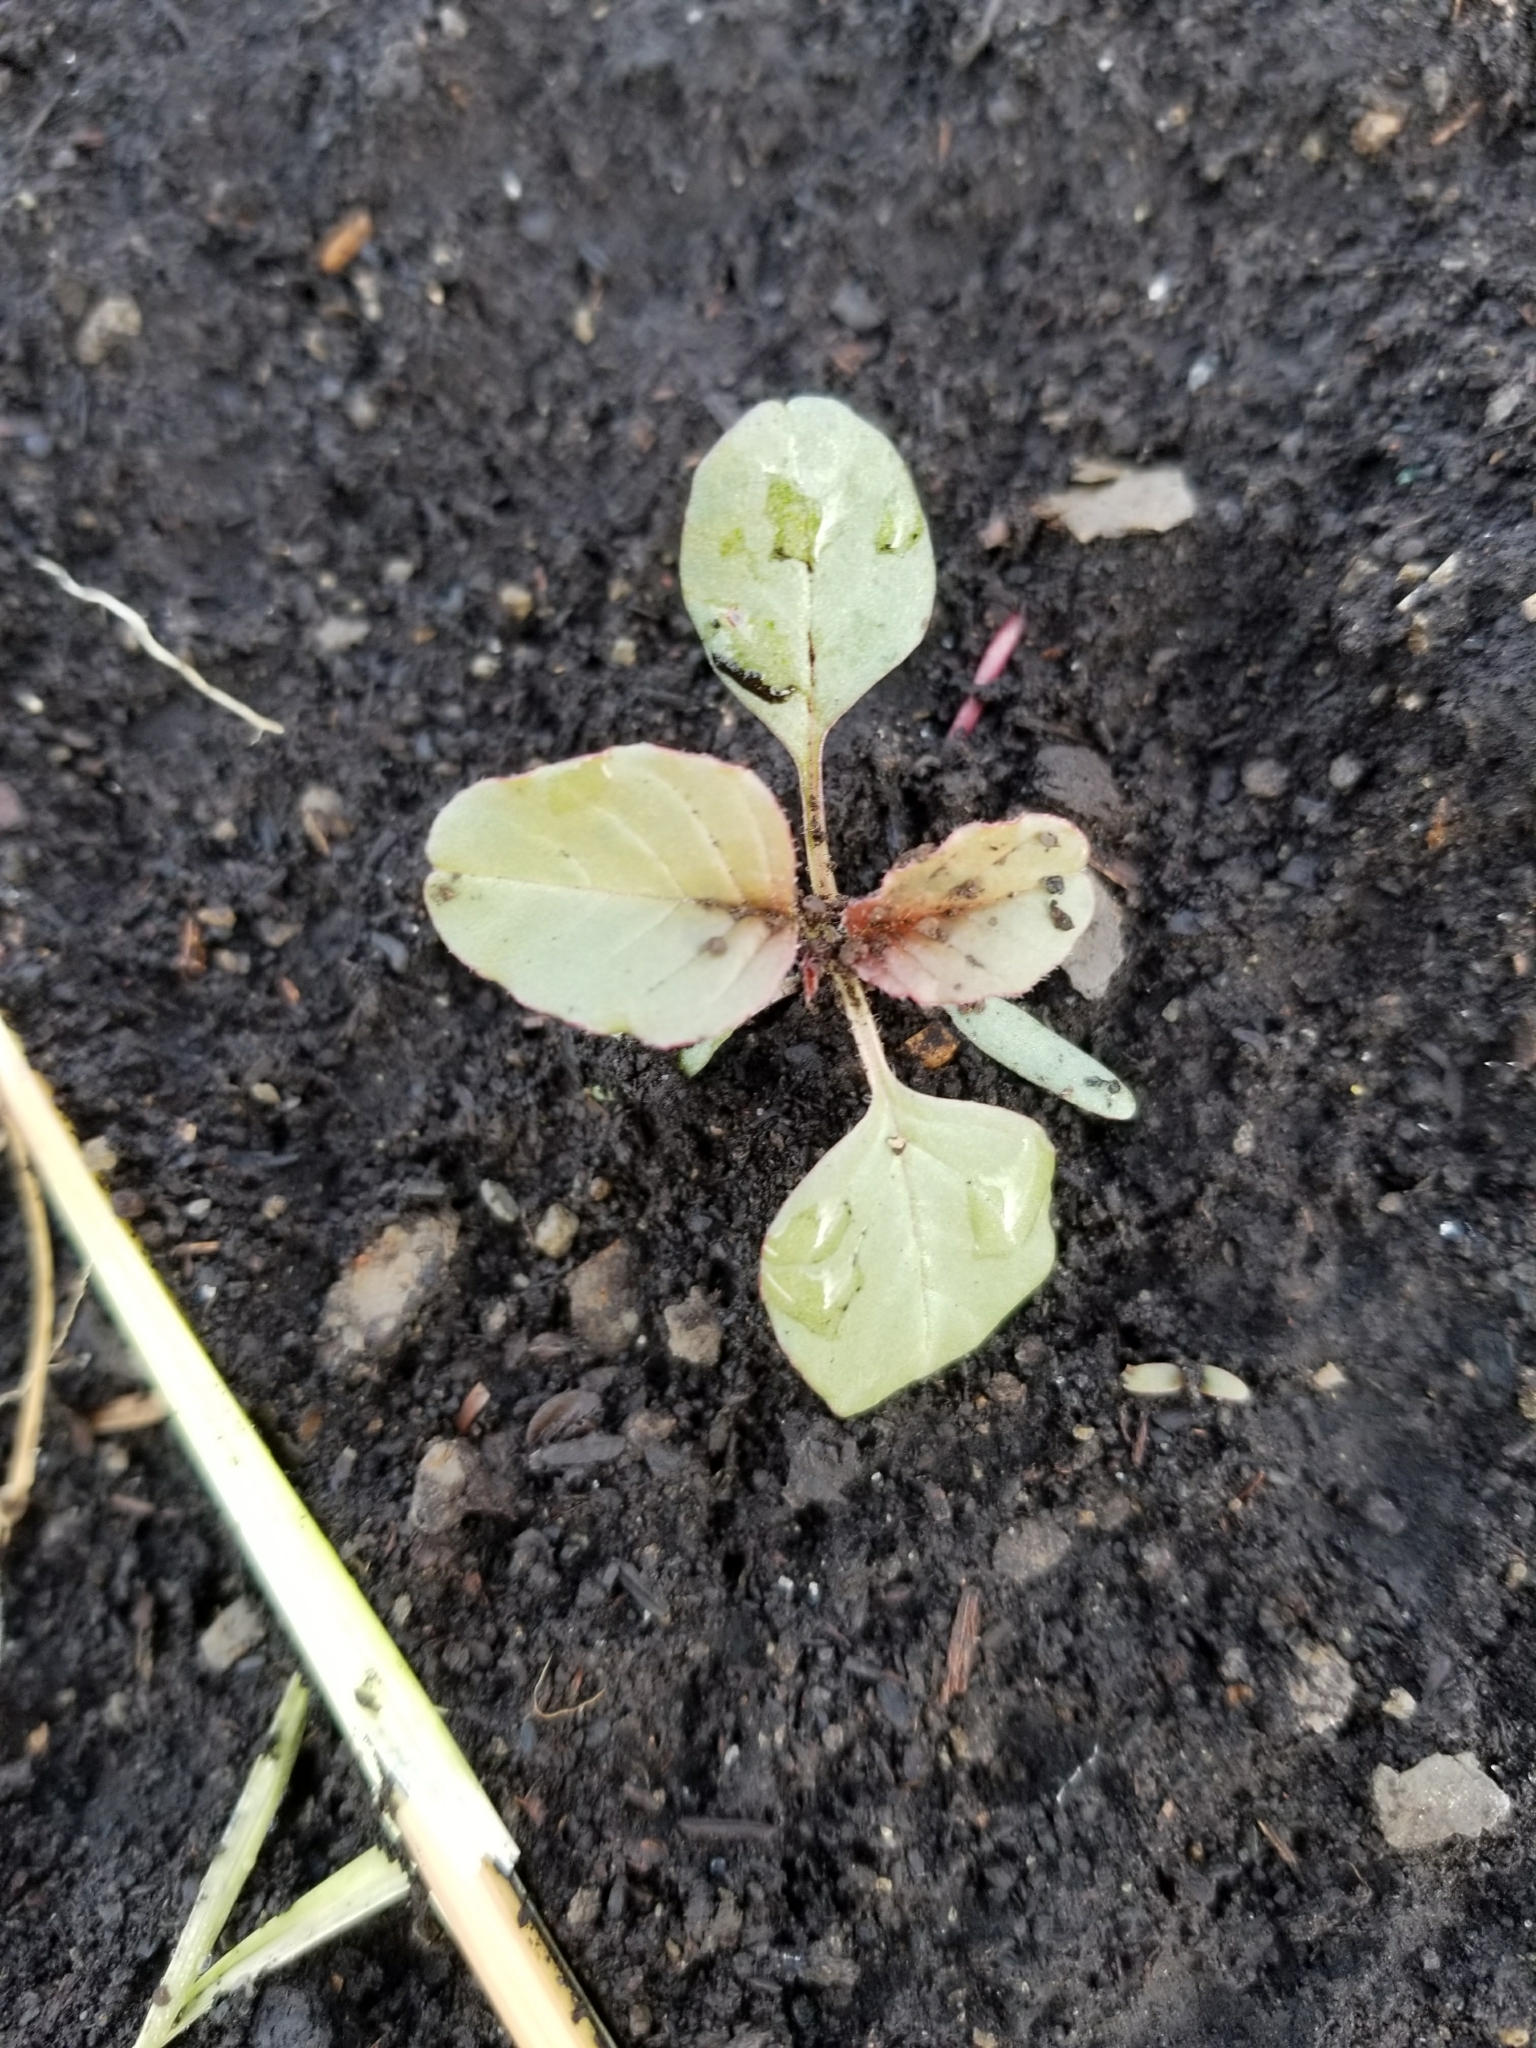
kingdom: Plantae
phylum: Tracheophyta
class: Magnoliopsida
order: Caryophyllales
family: Amaranthaceae
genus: Amaranthus
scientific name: Amaranthus retroflexus
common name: Redroot amaranth
